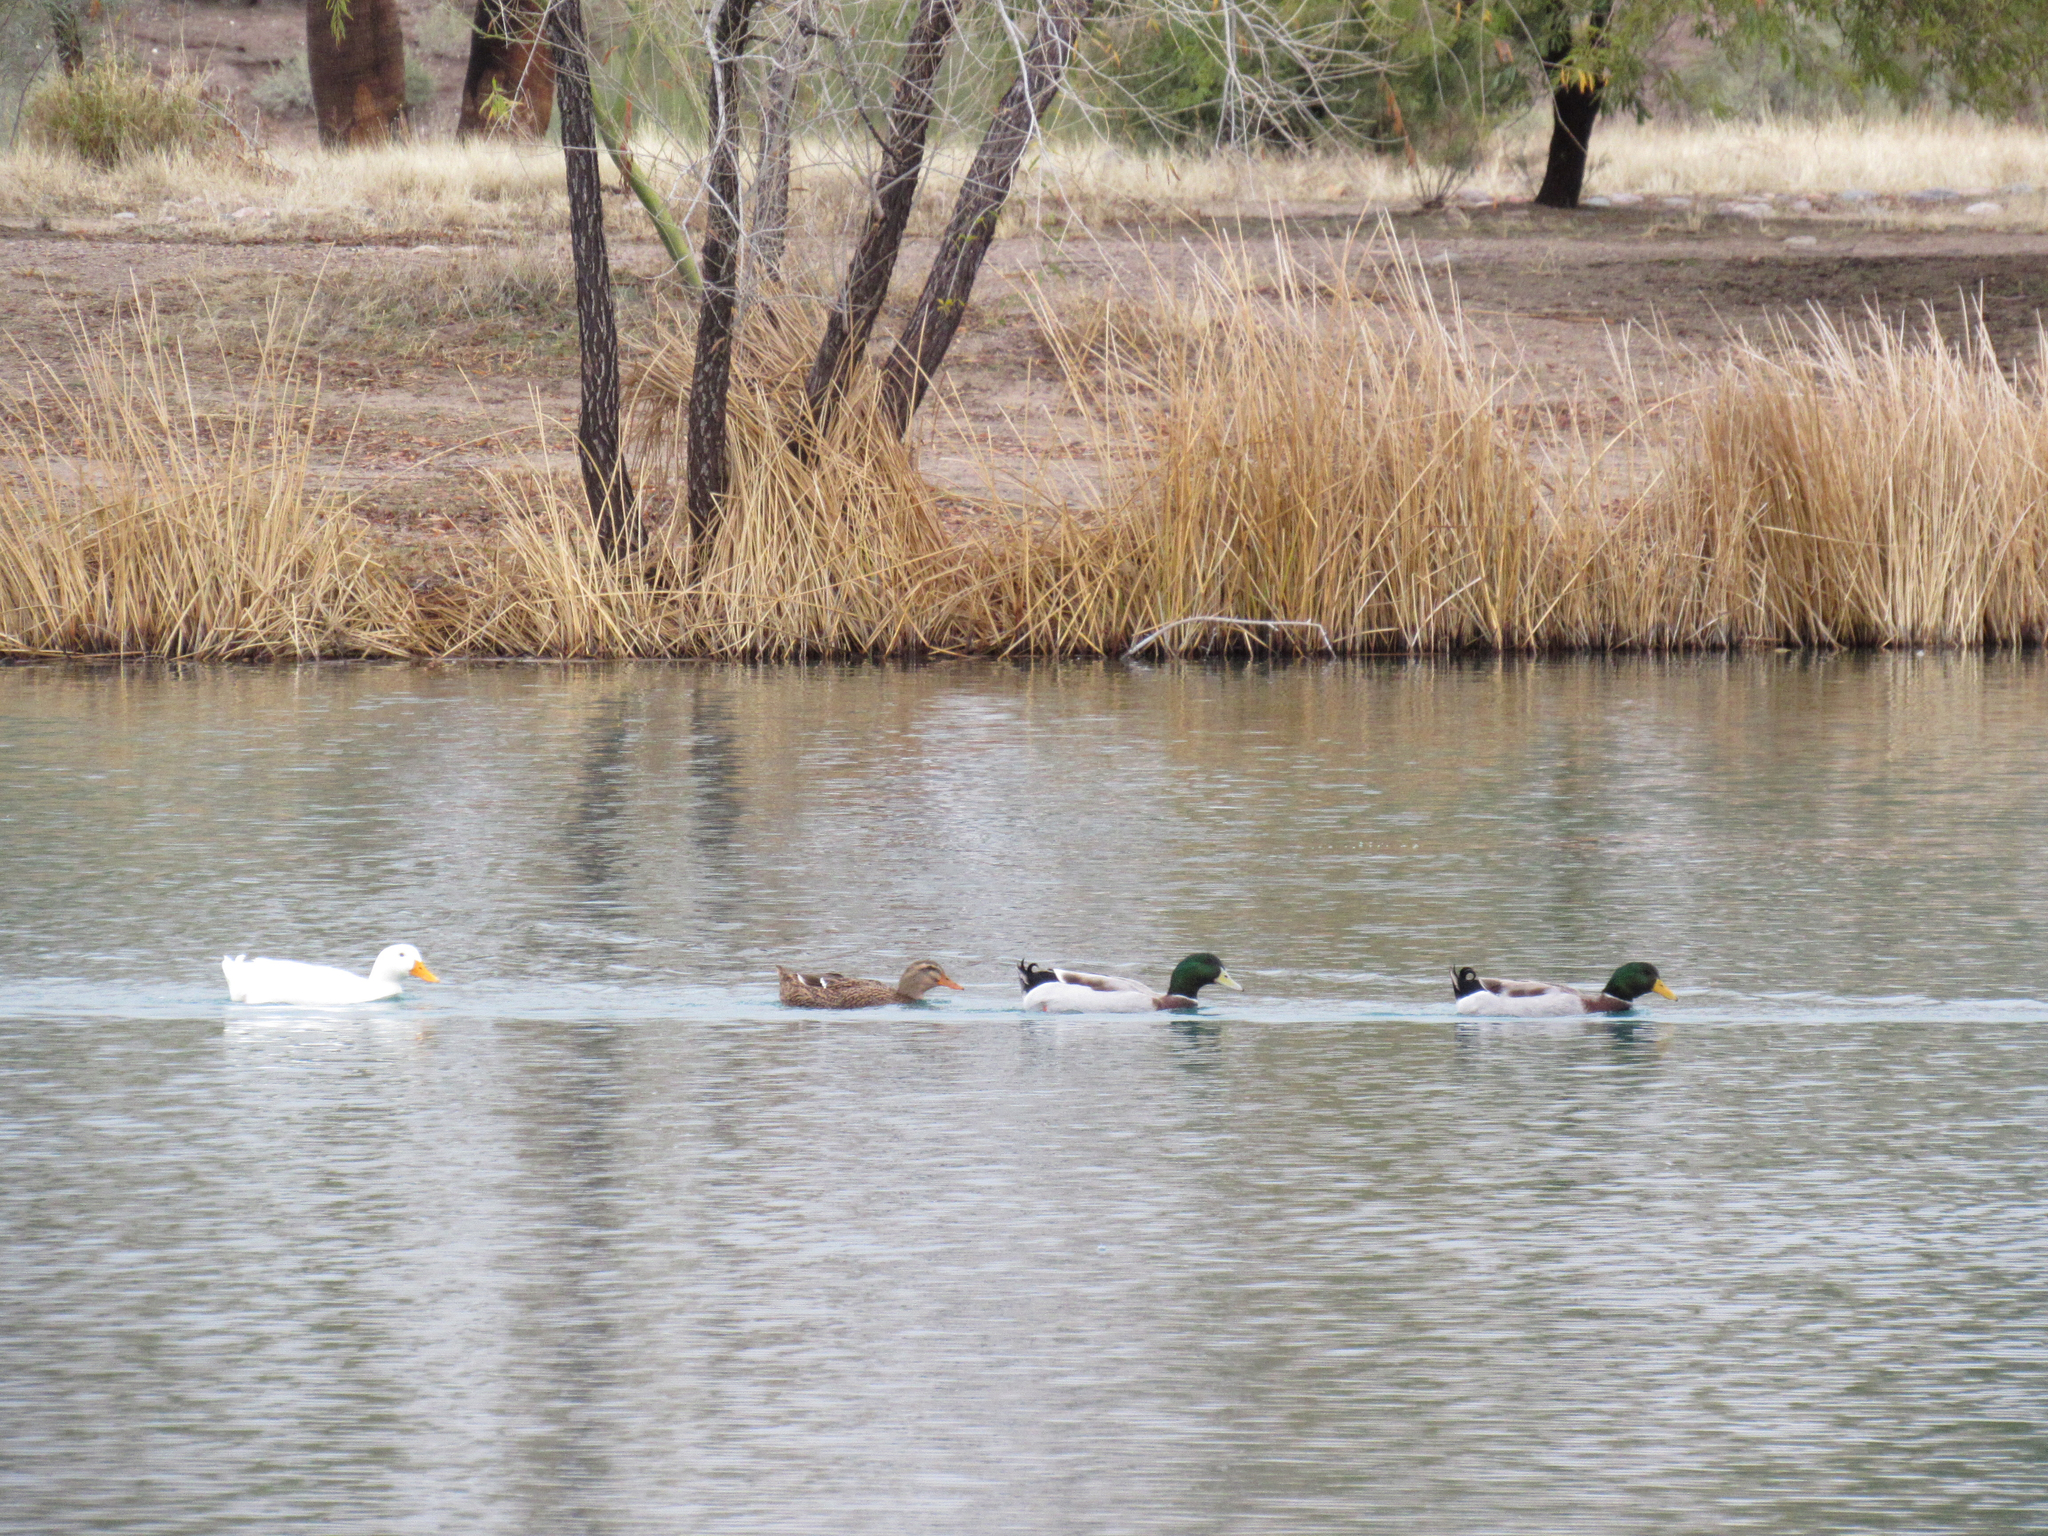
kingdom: Animalia
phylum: Chordata
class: Aves
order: Anseriformes
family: Anatidae
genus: Anas
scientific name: Anas platyrhynchos
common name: Mallard
